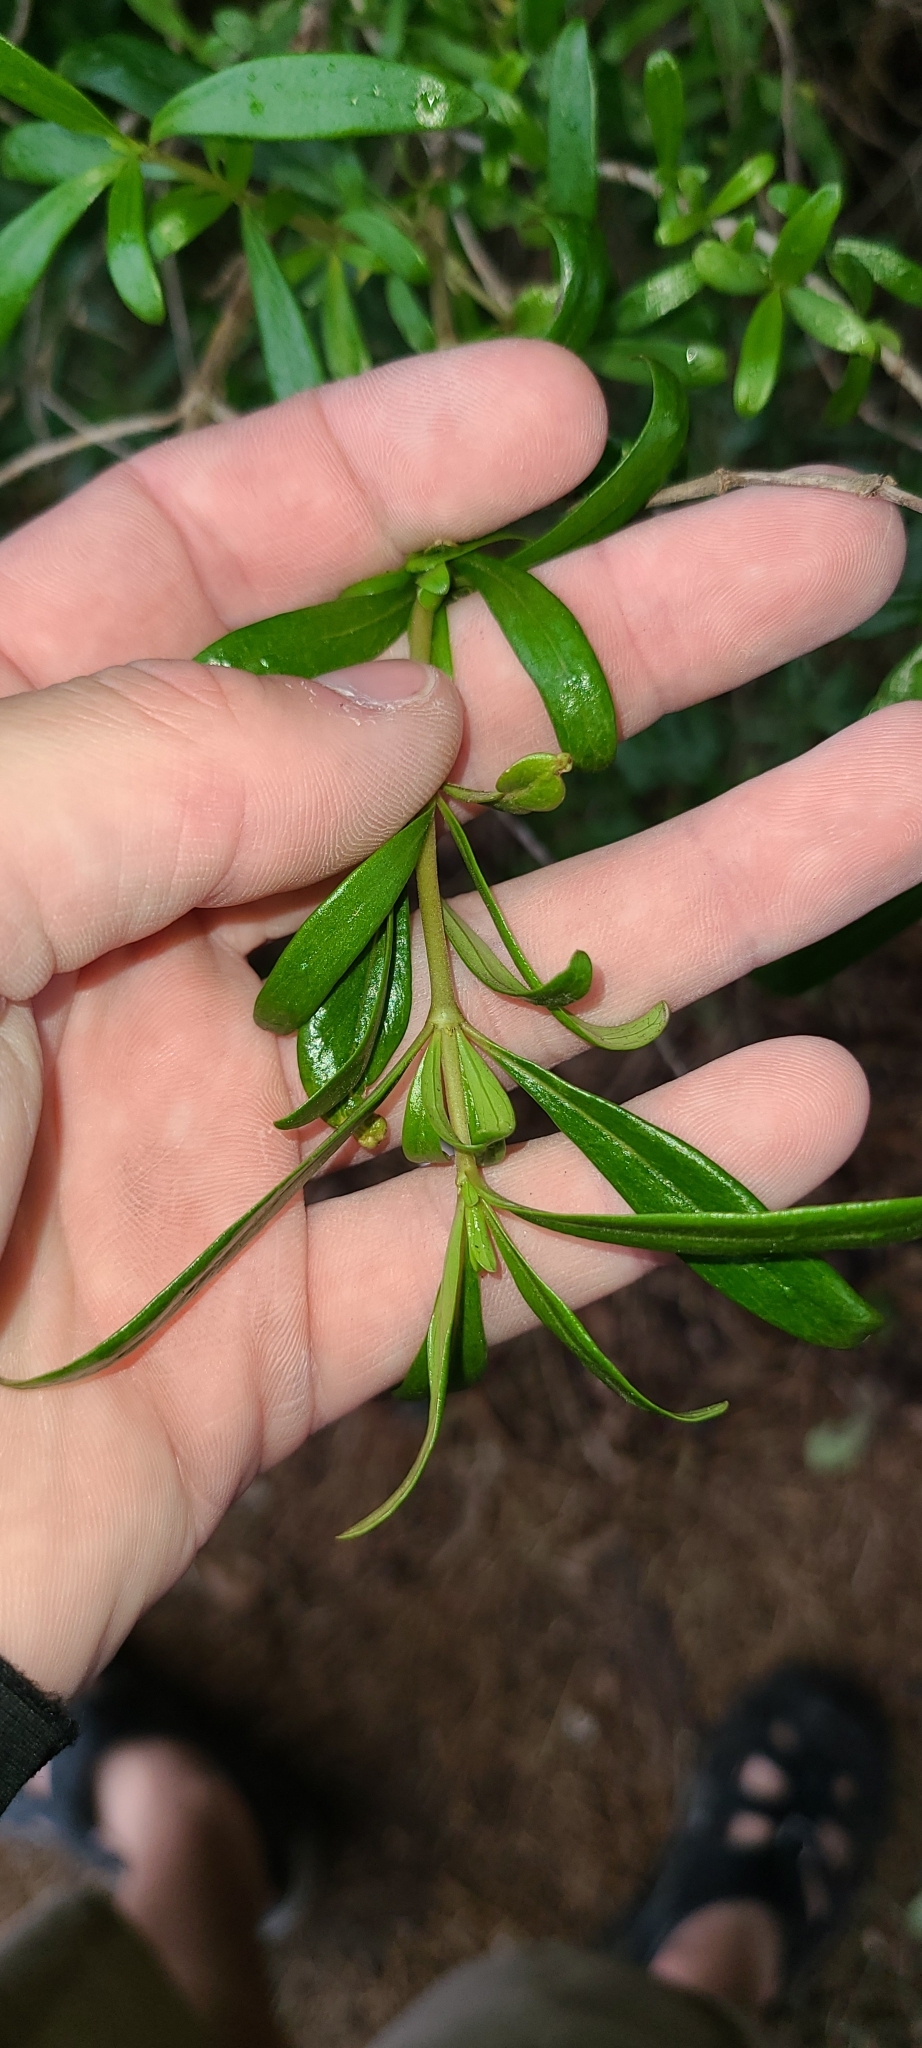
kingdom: Plantae
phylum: Tracheophyta
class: Magnoliopsida
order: Gentianales
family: Rubiaceae
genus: Coprosma
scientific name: Coprosma linariifolia
